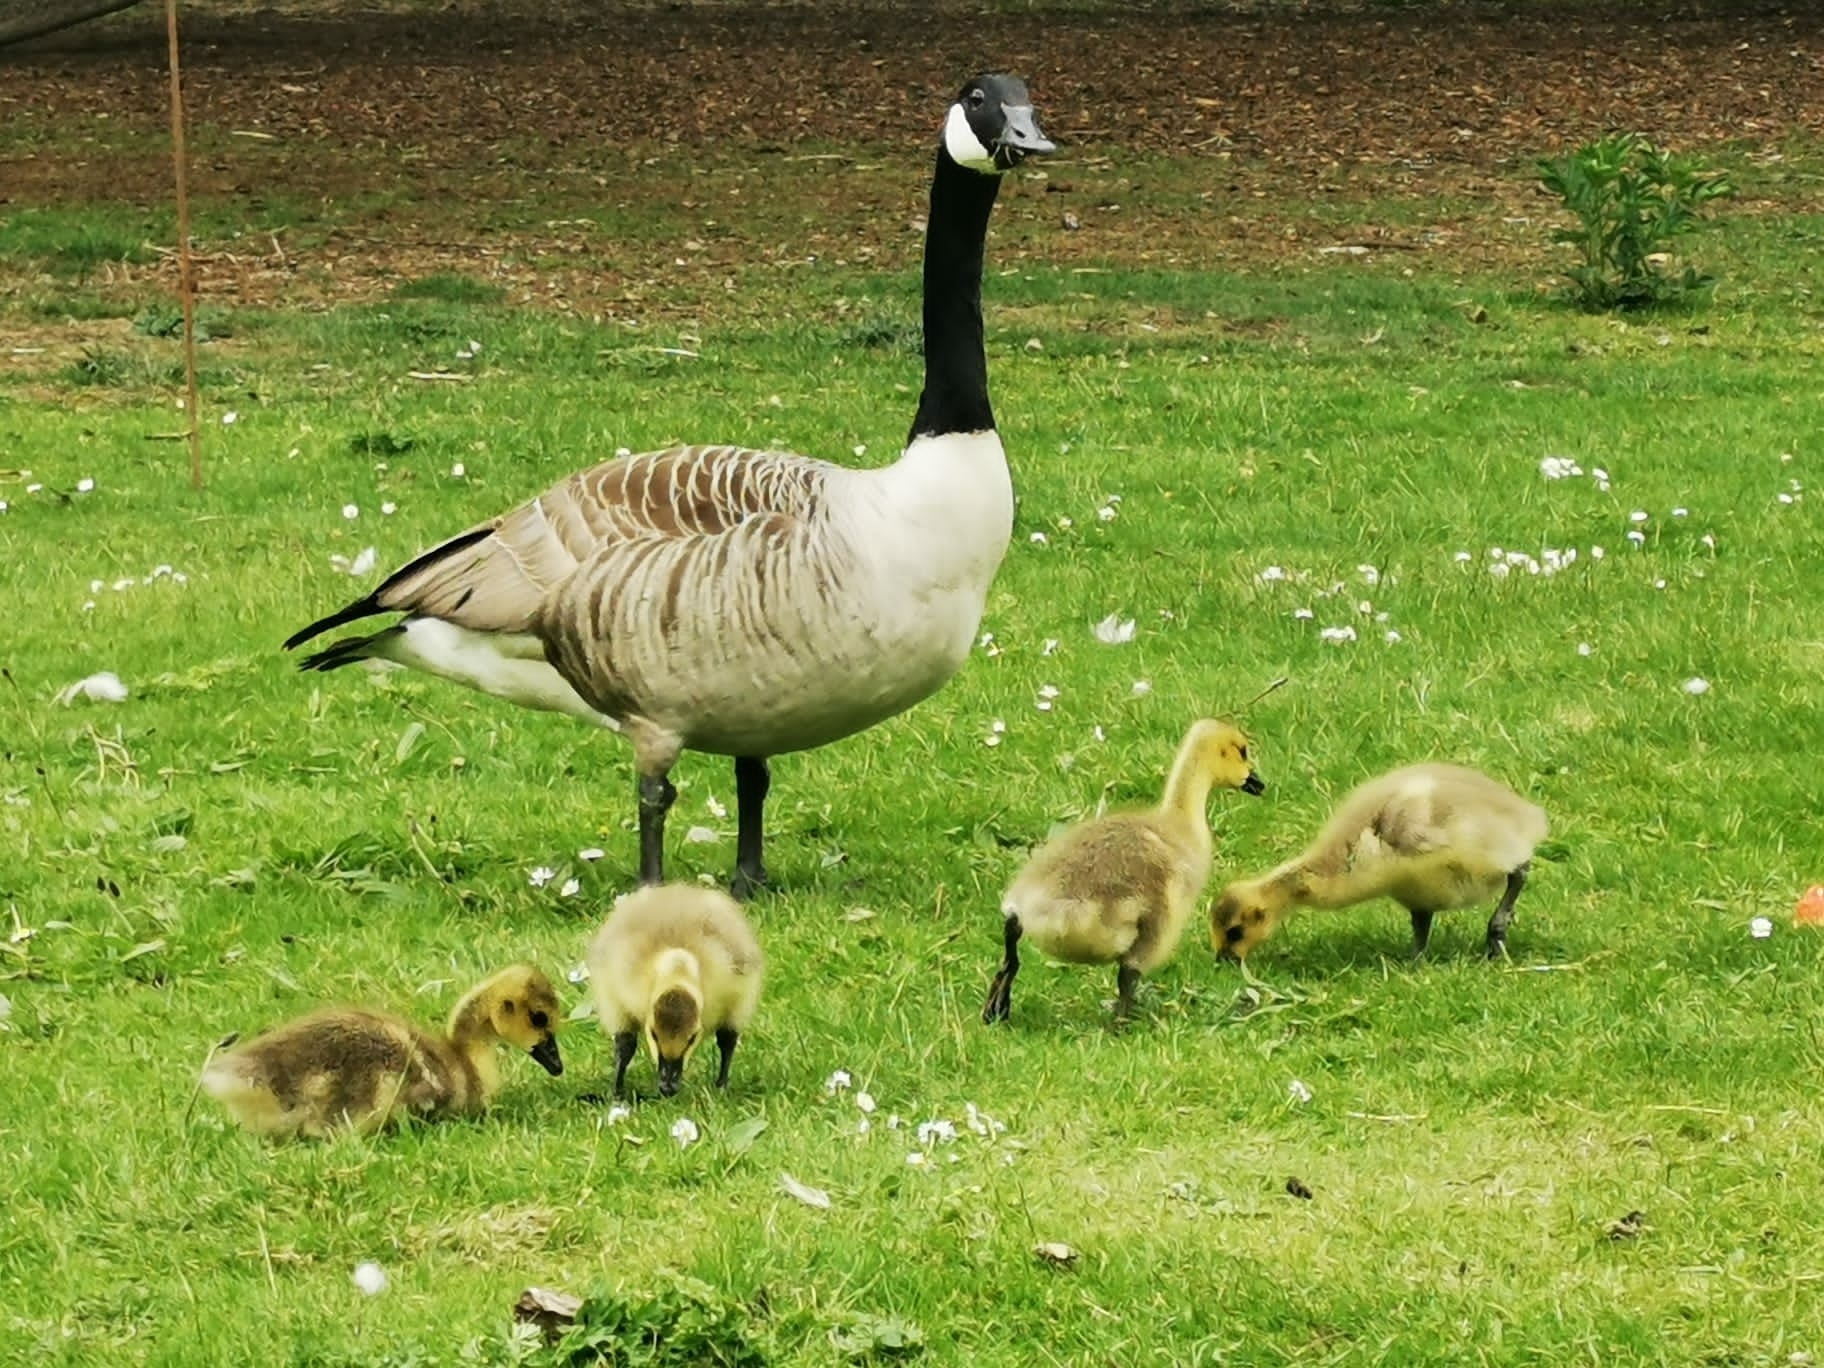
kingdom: Animalia
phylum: Chordata
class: Aves
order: Anseriformes
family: Anatidae
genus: Branta
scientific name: Branta canadensis
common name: Canada goose
